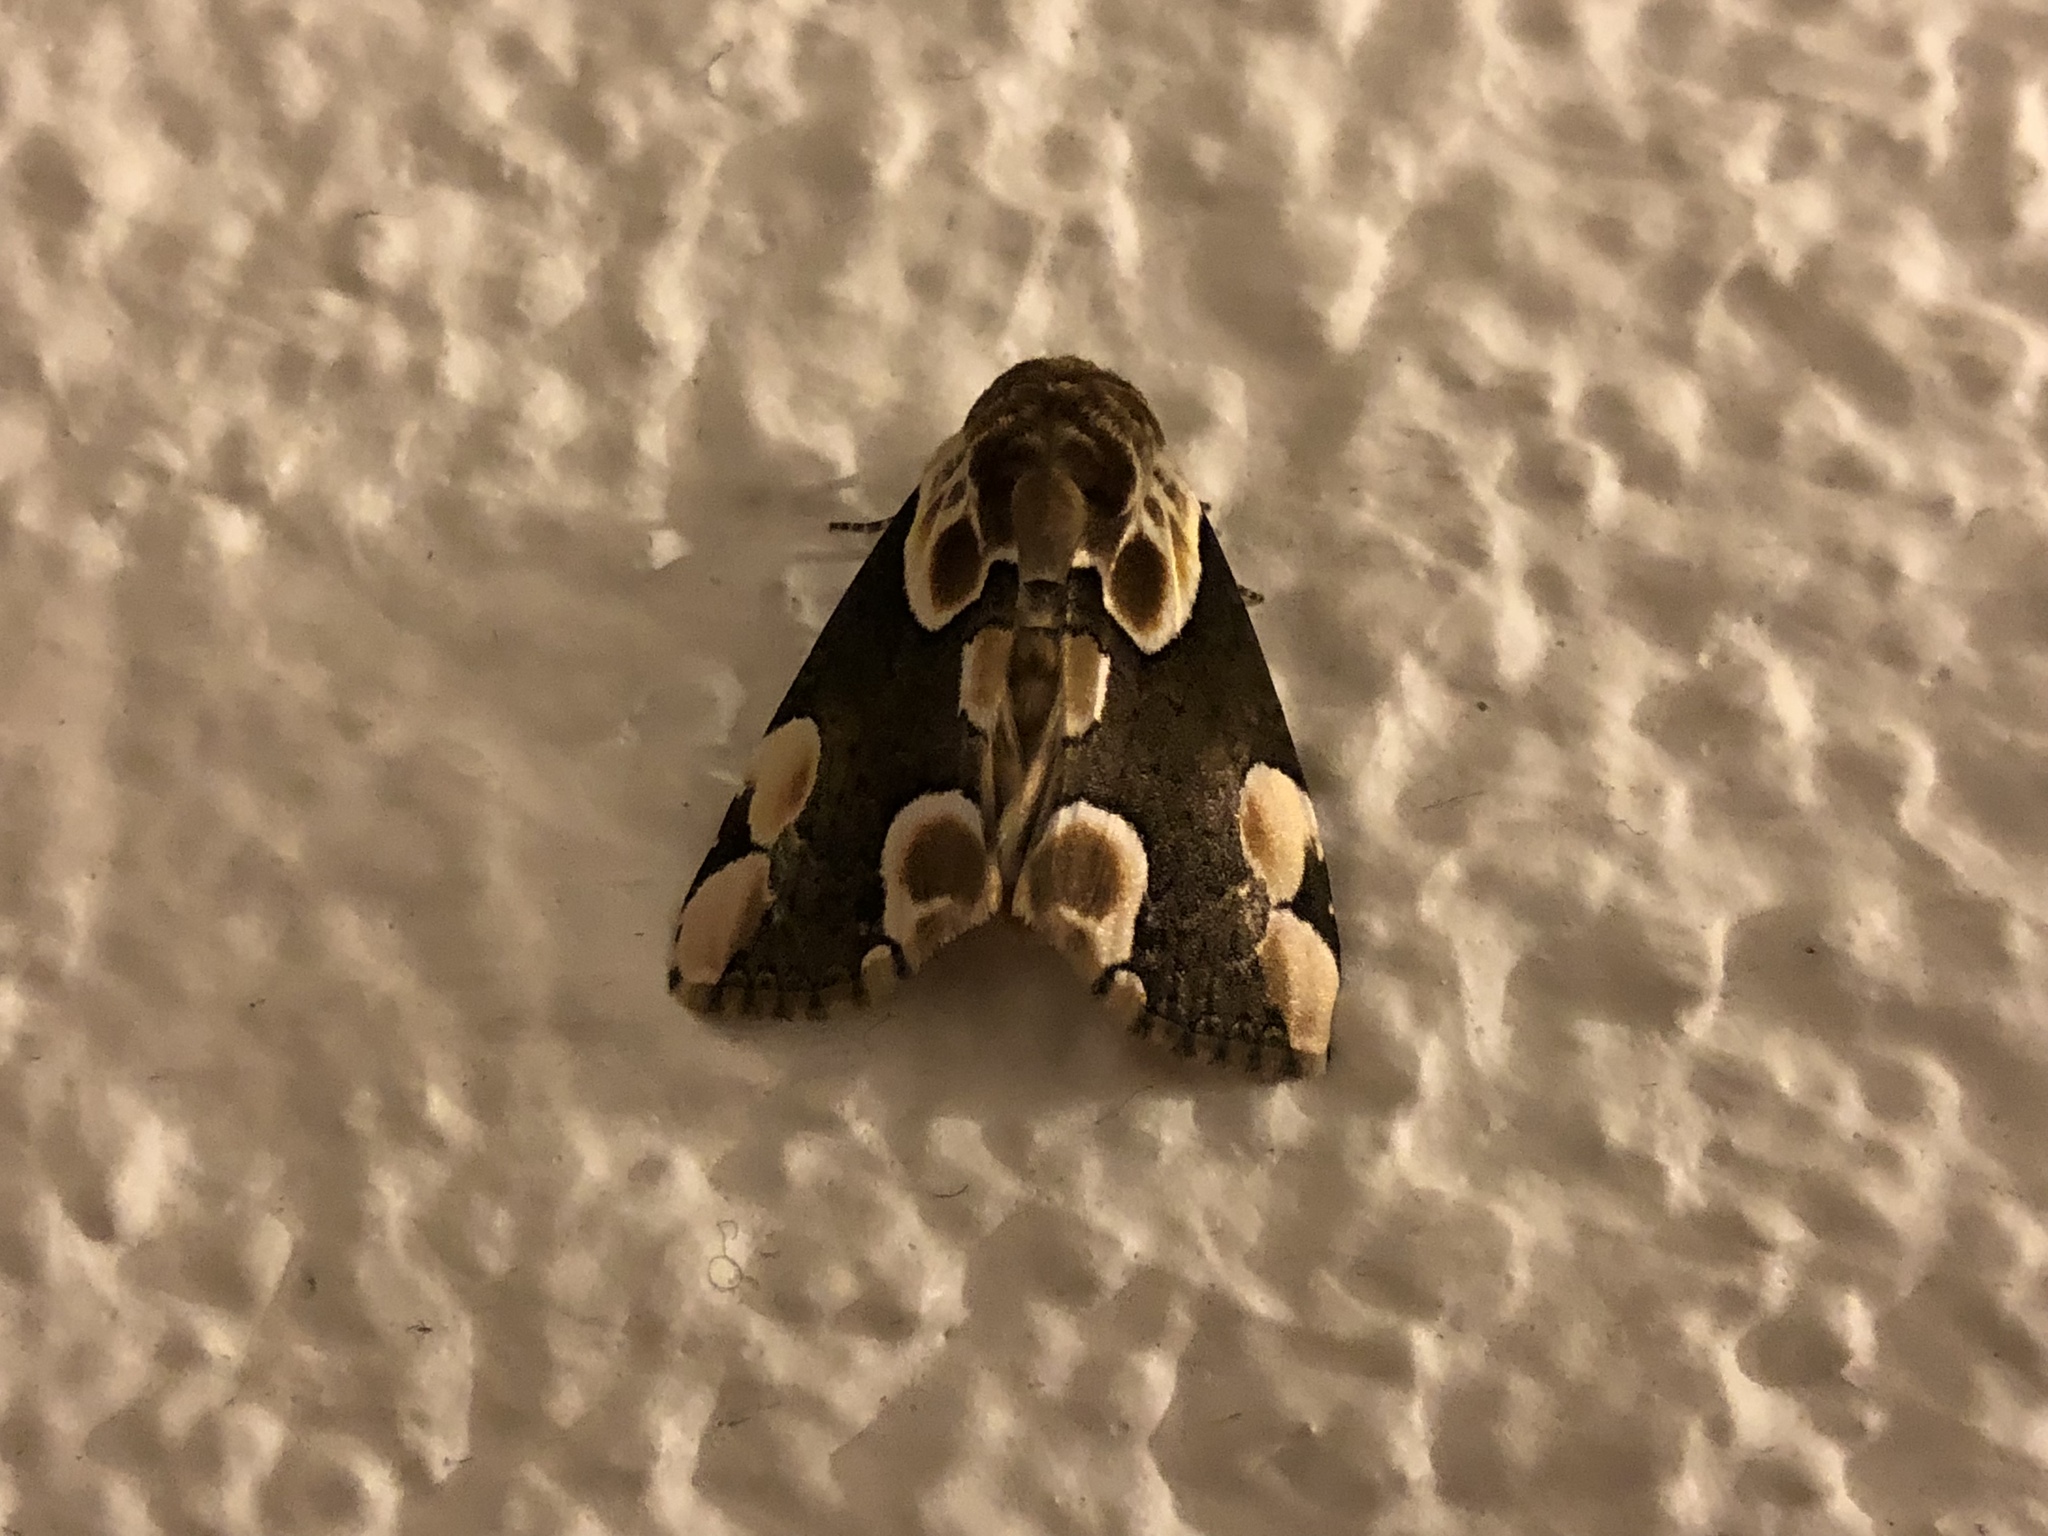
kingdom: Animalia
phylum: Arthropoda
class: Insecta
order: Lepidoptera
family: Drepanidae
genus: Thyatira
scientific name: Thyatira batis
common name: Peach blossom
